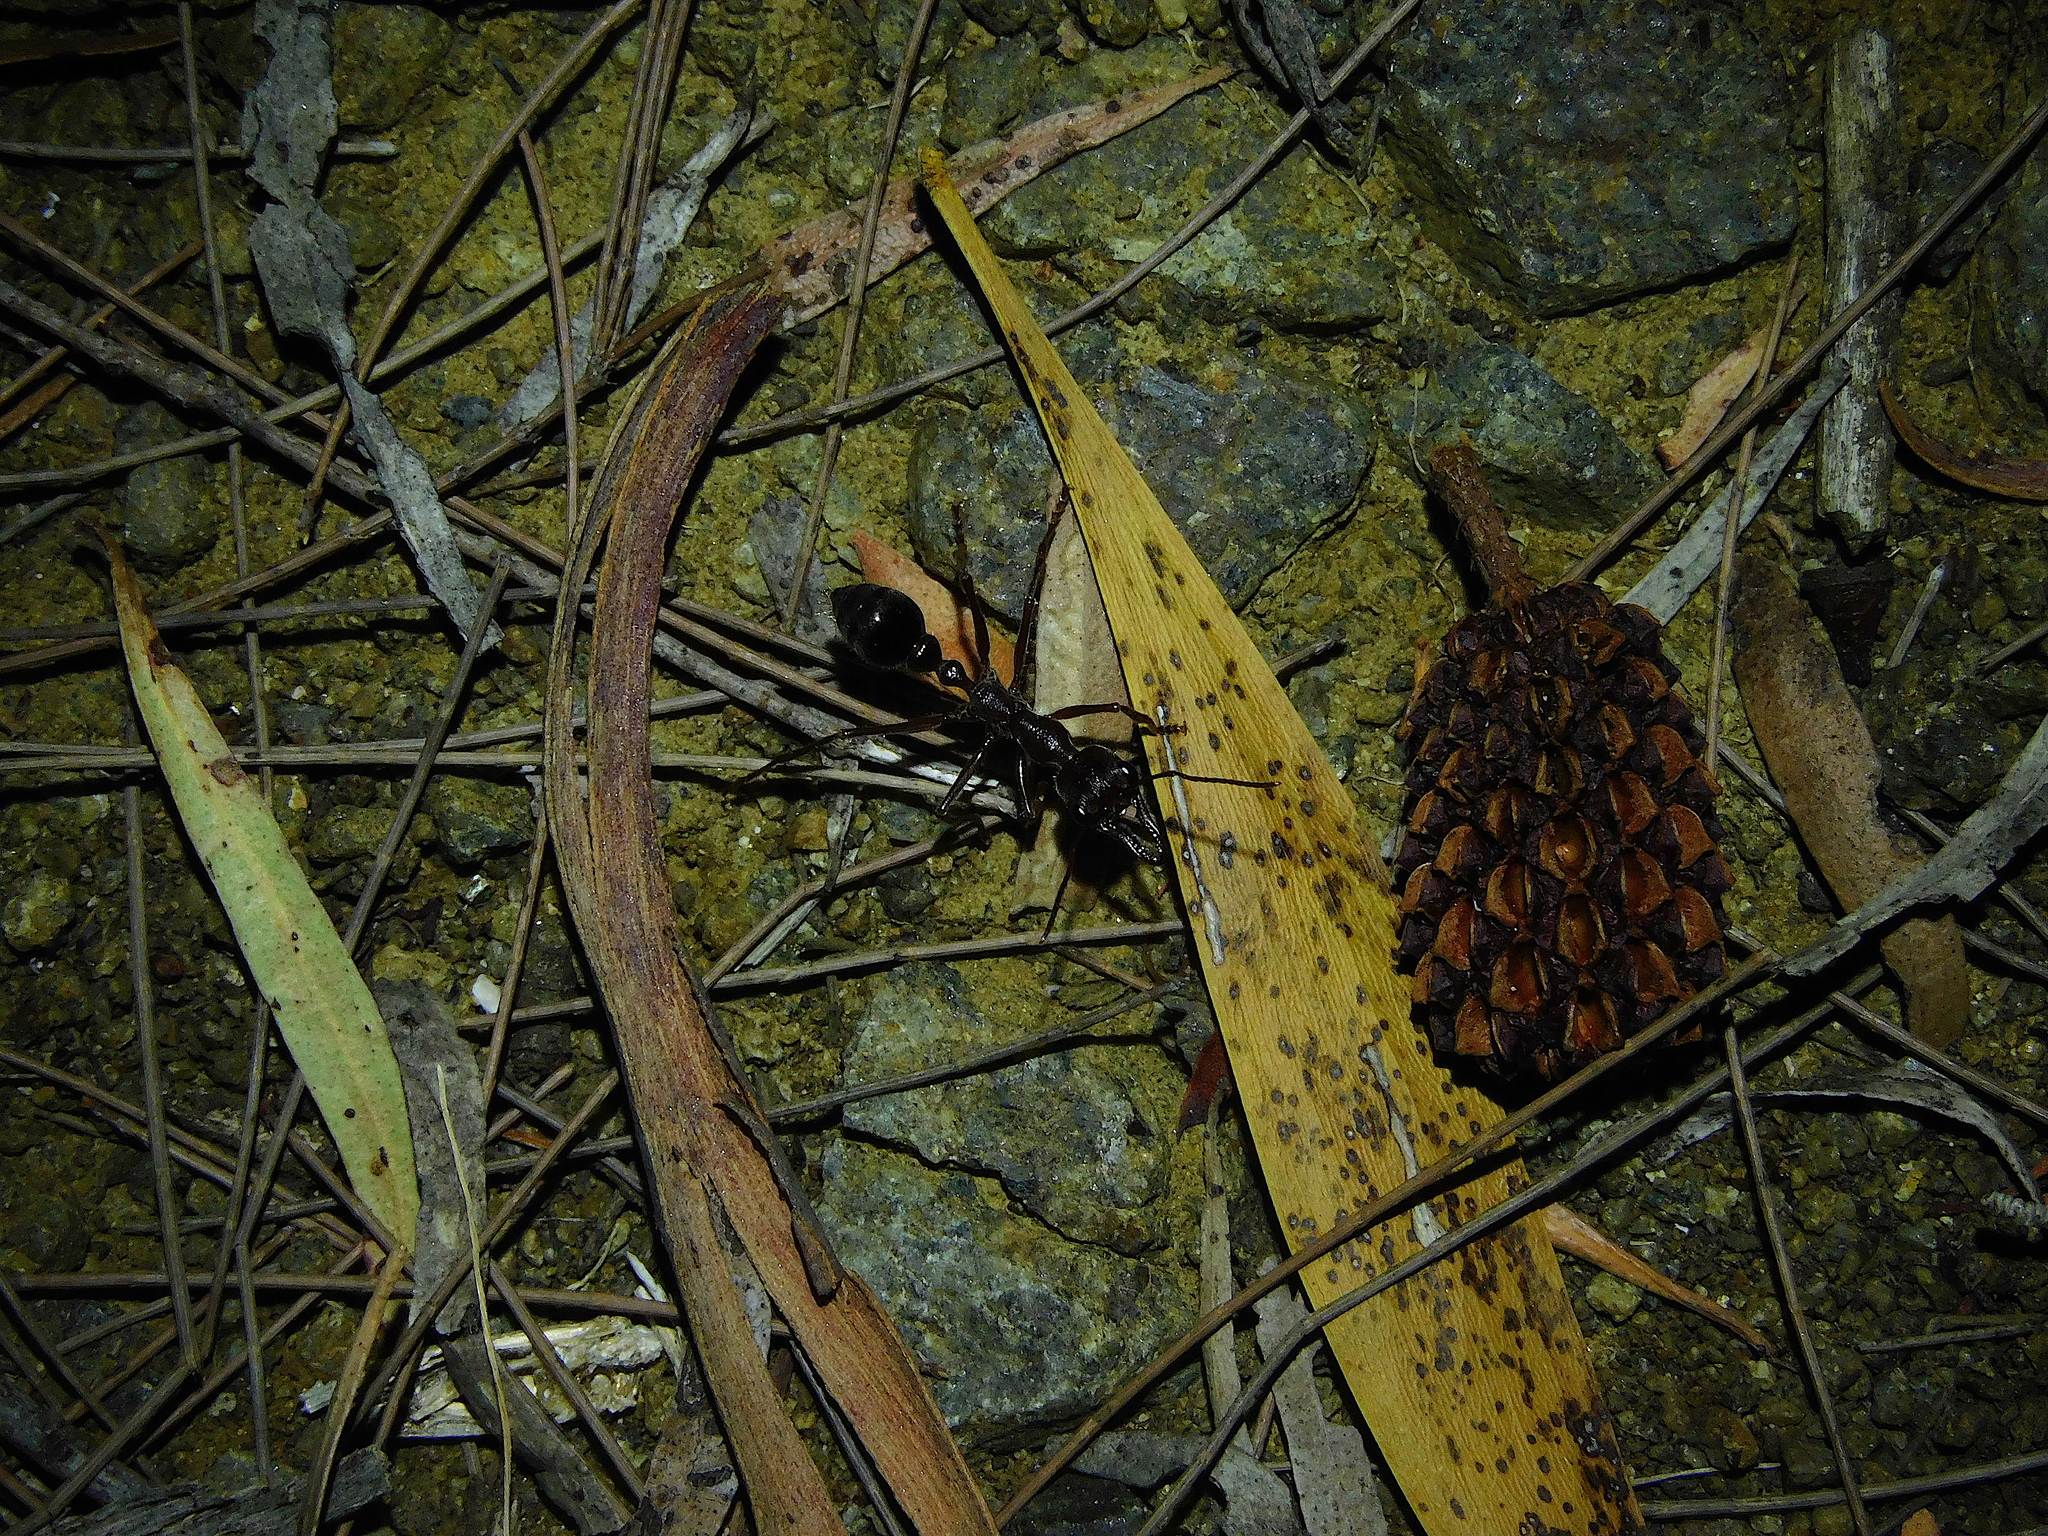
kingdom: Animalia
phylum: Arthropoda
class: Insecta
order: Hymenoptera
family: Formicidae
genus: Myrmecia
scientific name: Myrmecia forficata
